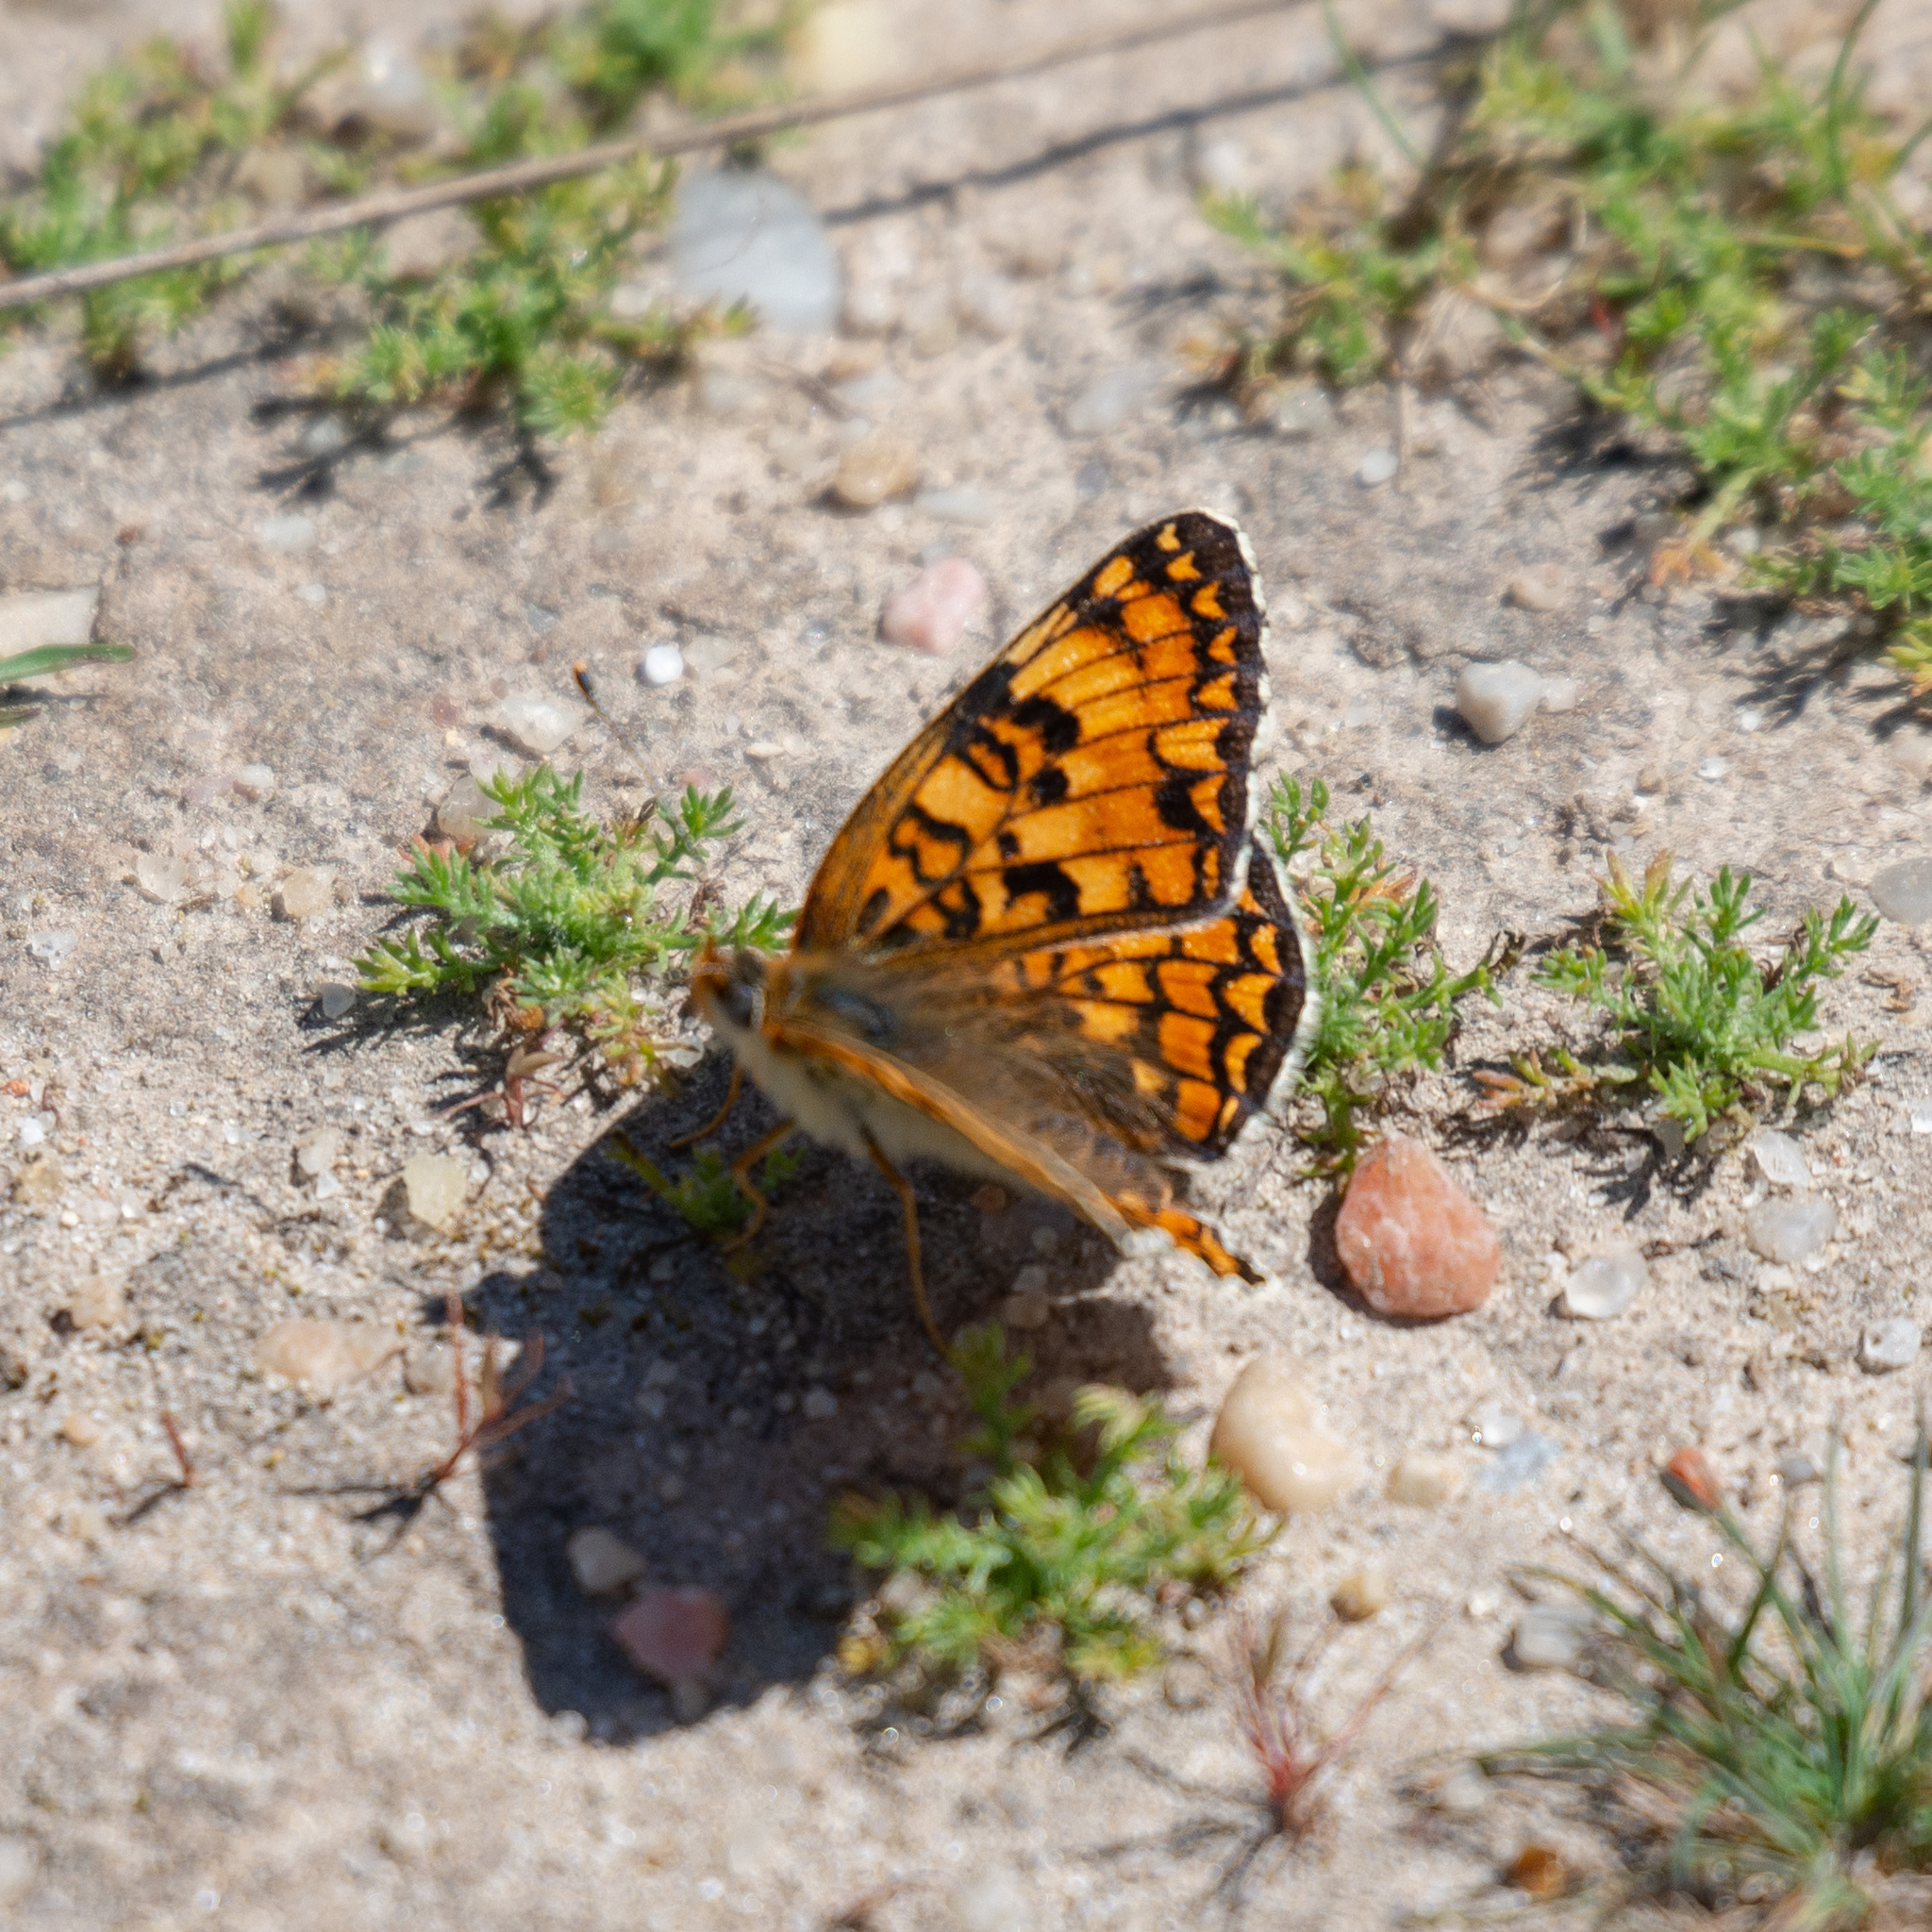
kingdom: Animalia
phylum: Arthropoda
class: Insecta
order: Lepidoptera
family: Nymphalidae
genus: Melitaea
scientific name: Melitaea phoebe
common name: Knapweed fritillary
